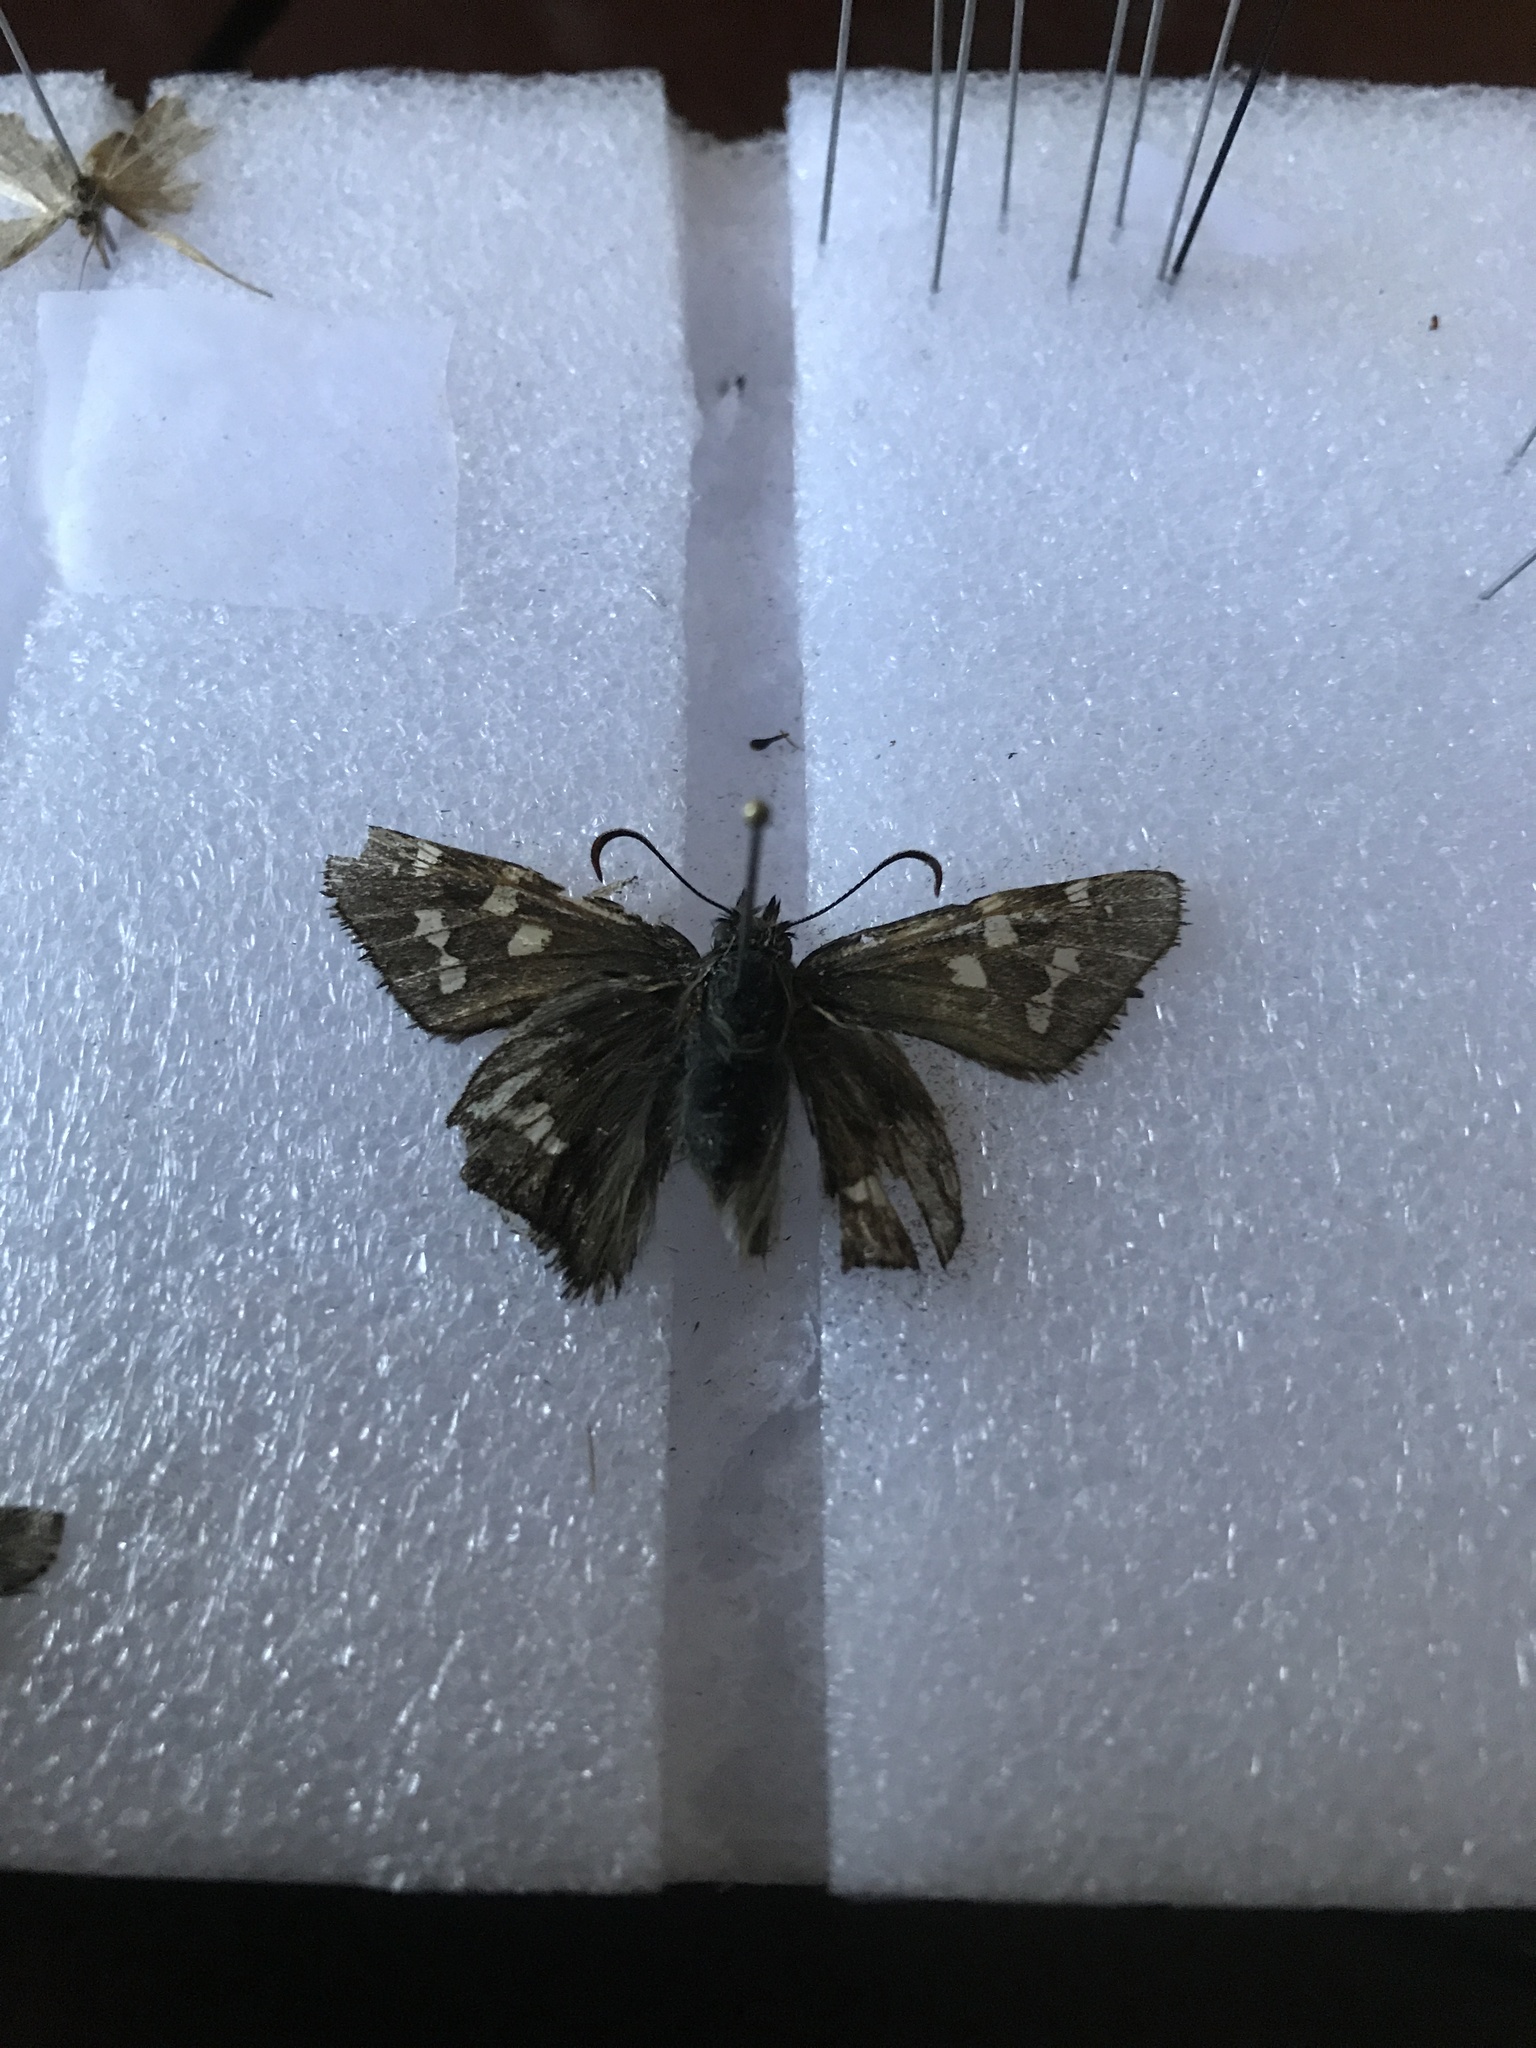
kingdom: Animalia
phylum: Arthropoda
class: Insecta
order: Lepidoptera
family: Hesperiidae
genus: Zestusa
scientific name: Zestusa dorus
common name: Short-tailed skipper
